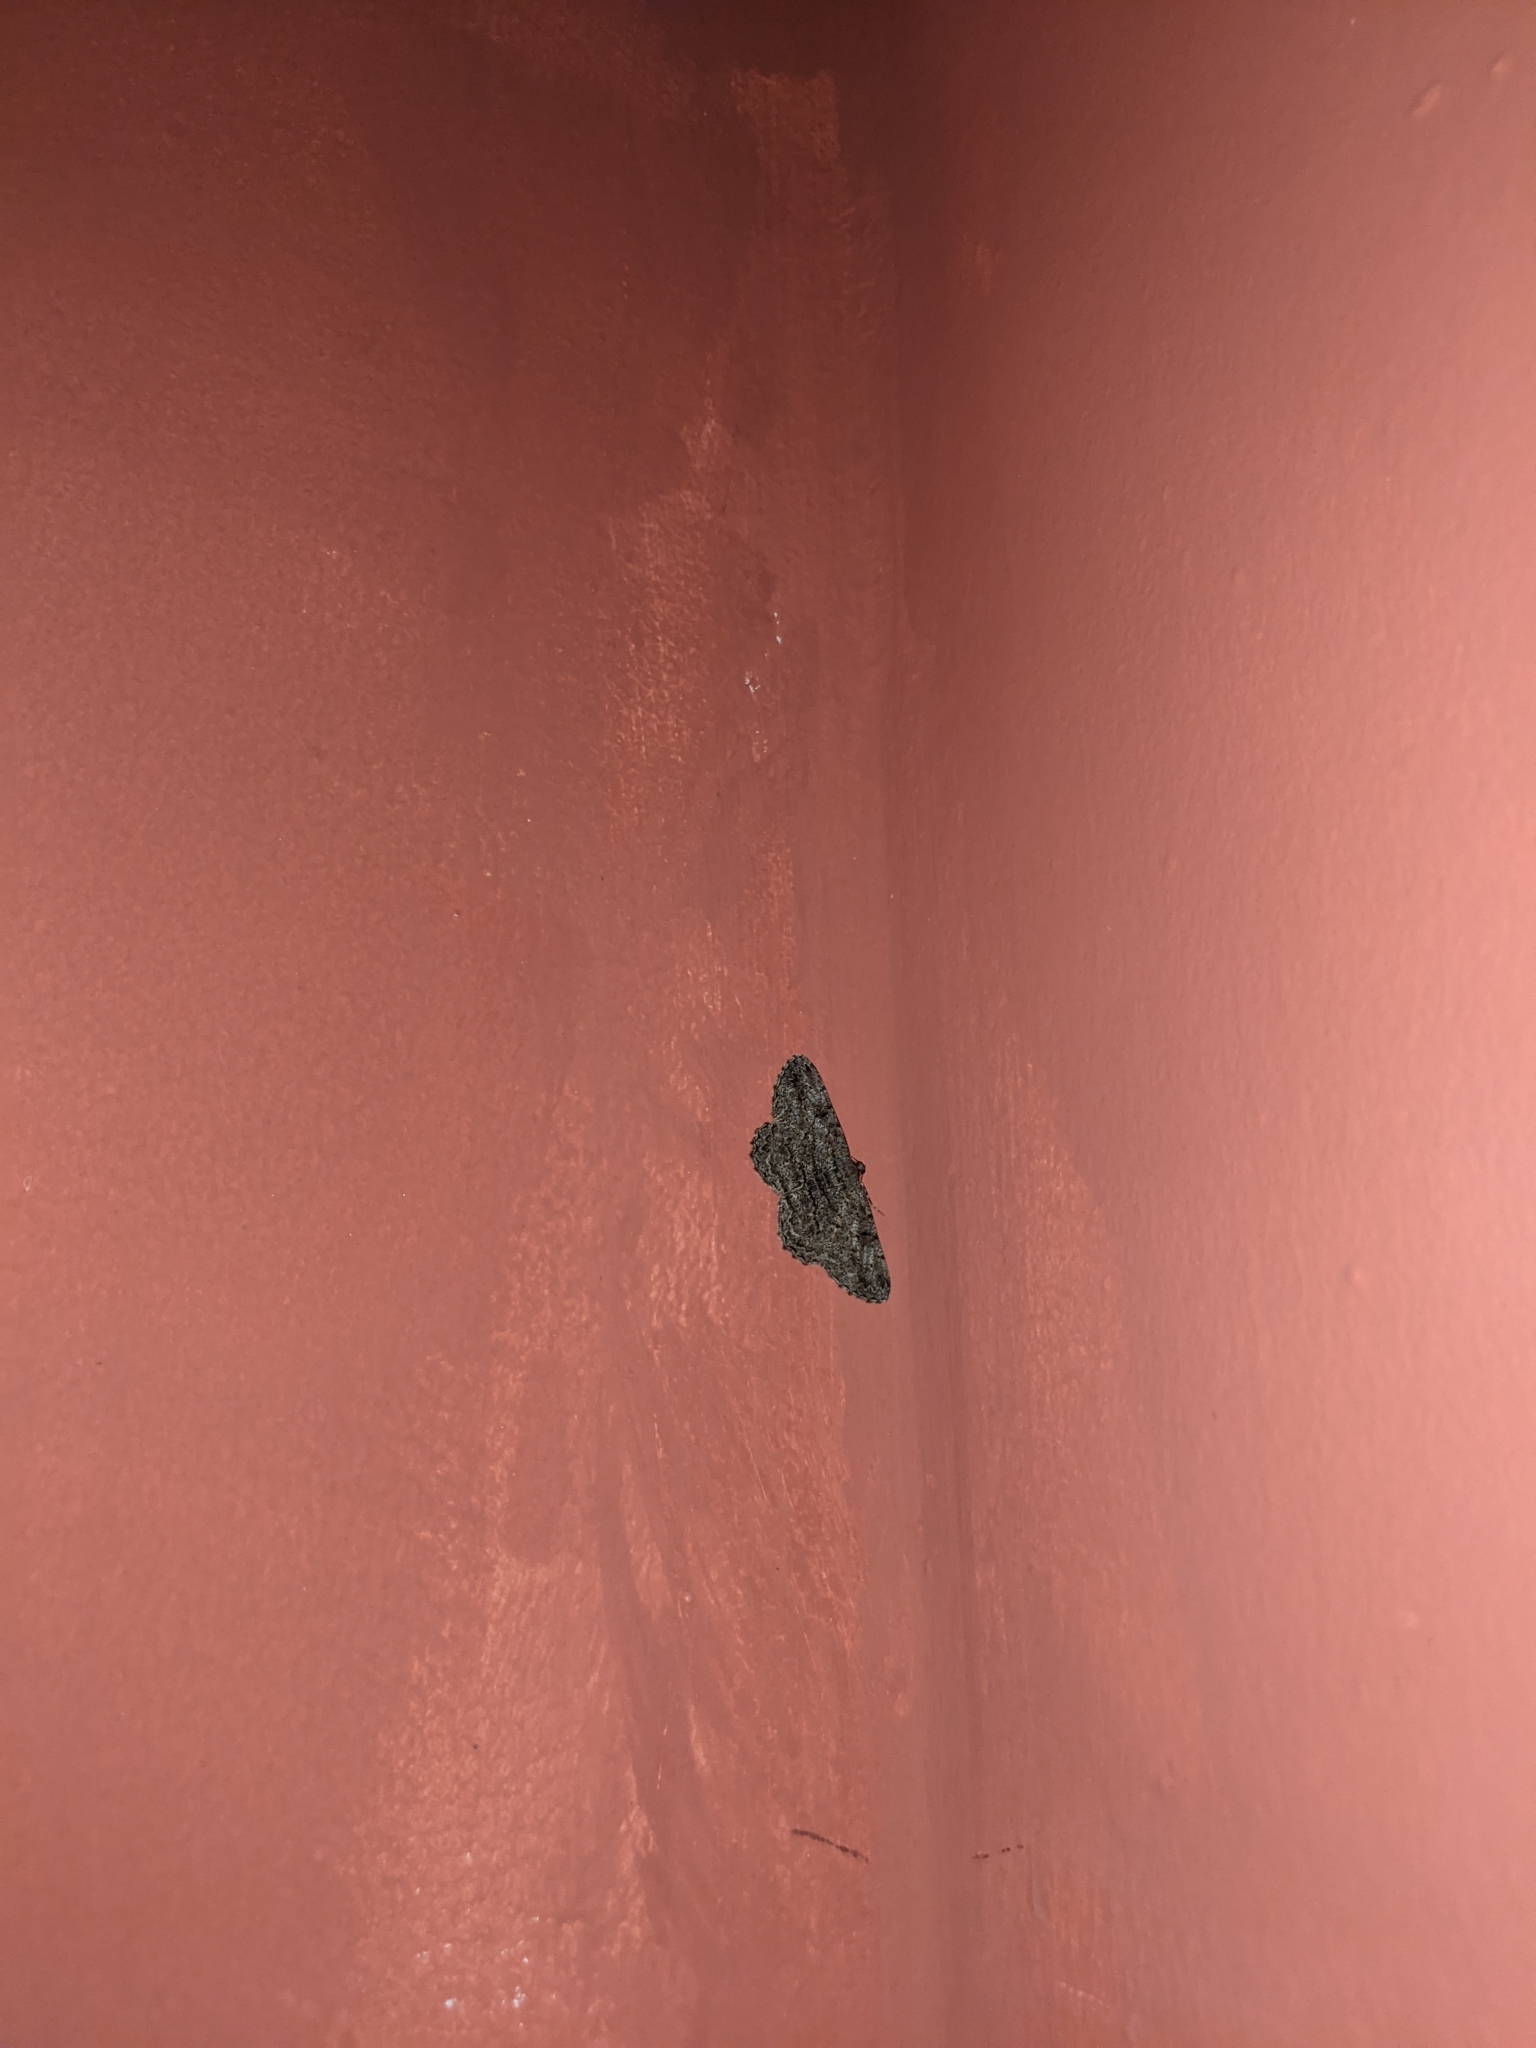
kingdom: Animalia
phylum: Arthropoda
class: Insecta
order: Lepidoptera
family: Geometridae
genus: Peribatodes
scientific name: Peribatodes rhomboidaria
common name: Willow beauty
